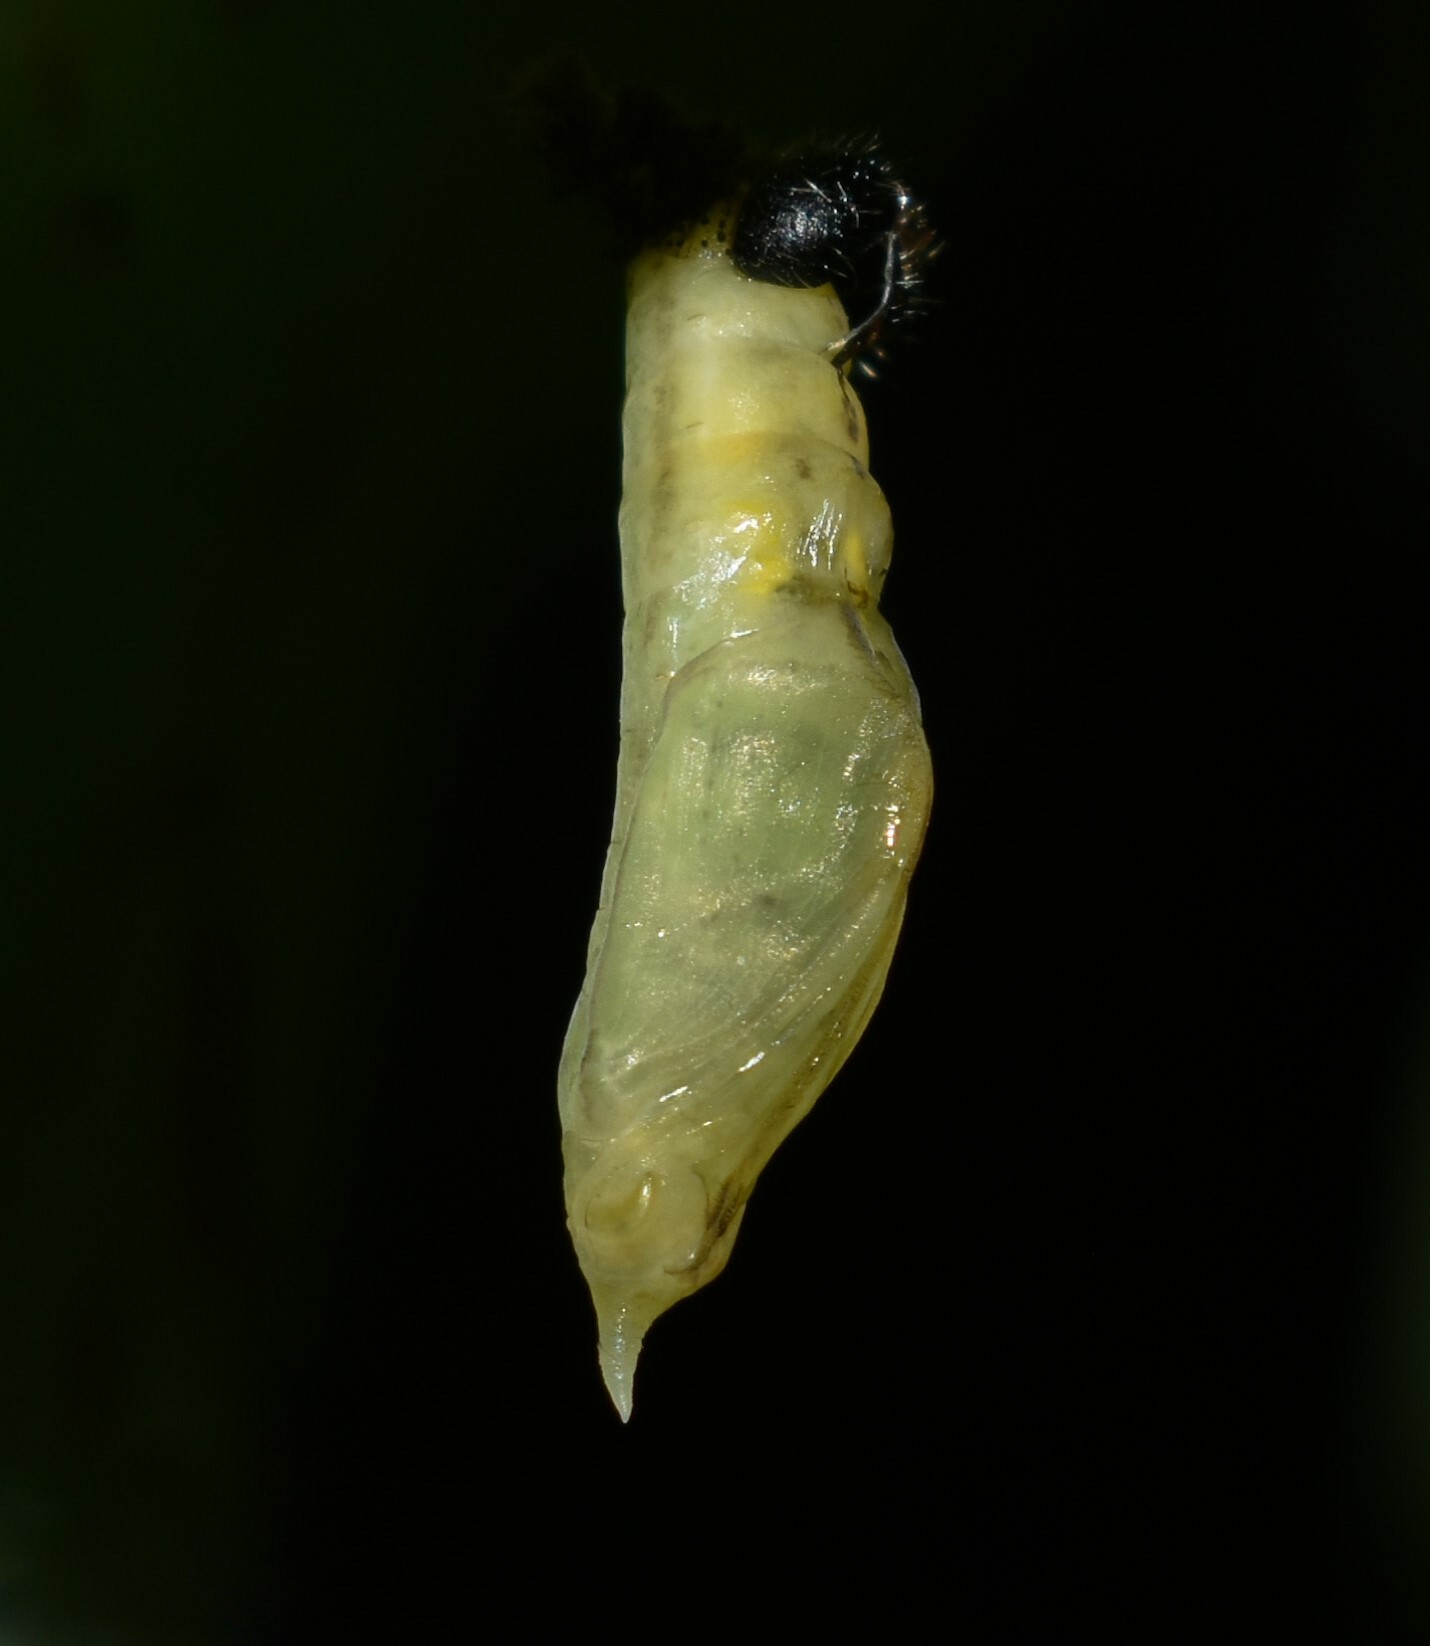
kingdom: Animalia
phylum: Arthropoda
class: Insecta
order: Lepidoptera
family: Pieridae
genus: Eurema
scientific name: Eurema blanda
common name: Three-spot grass yellow
